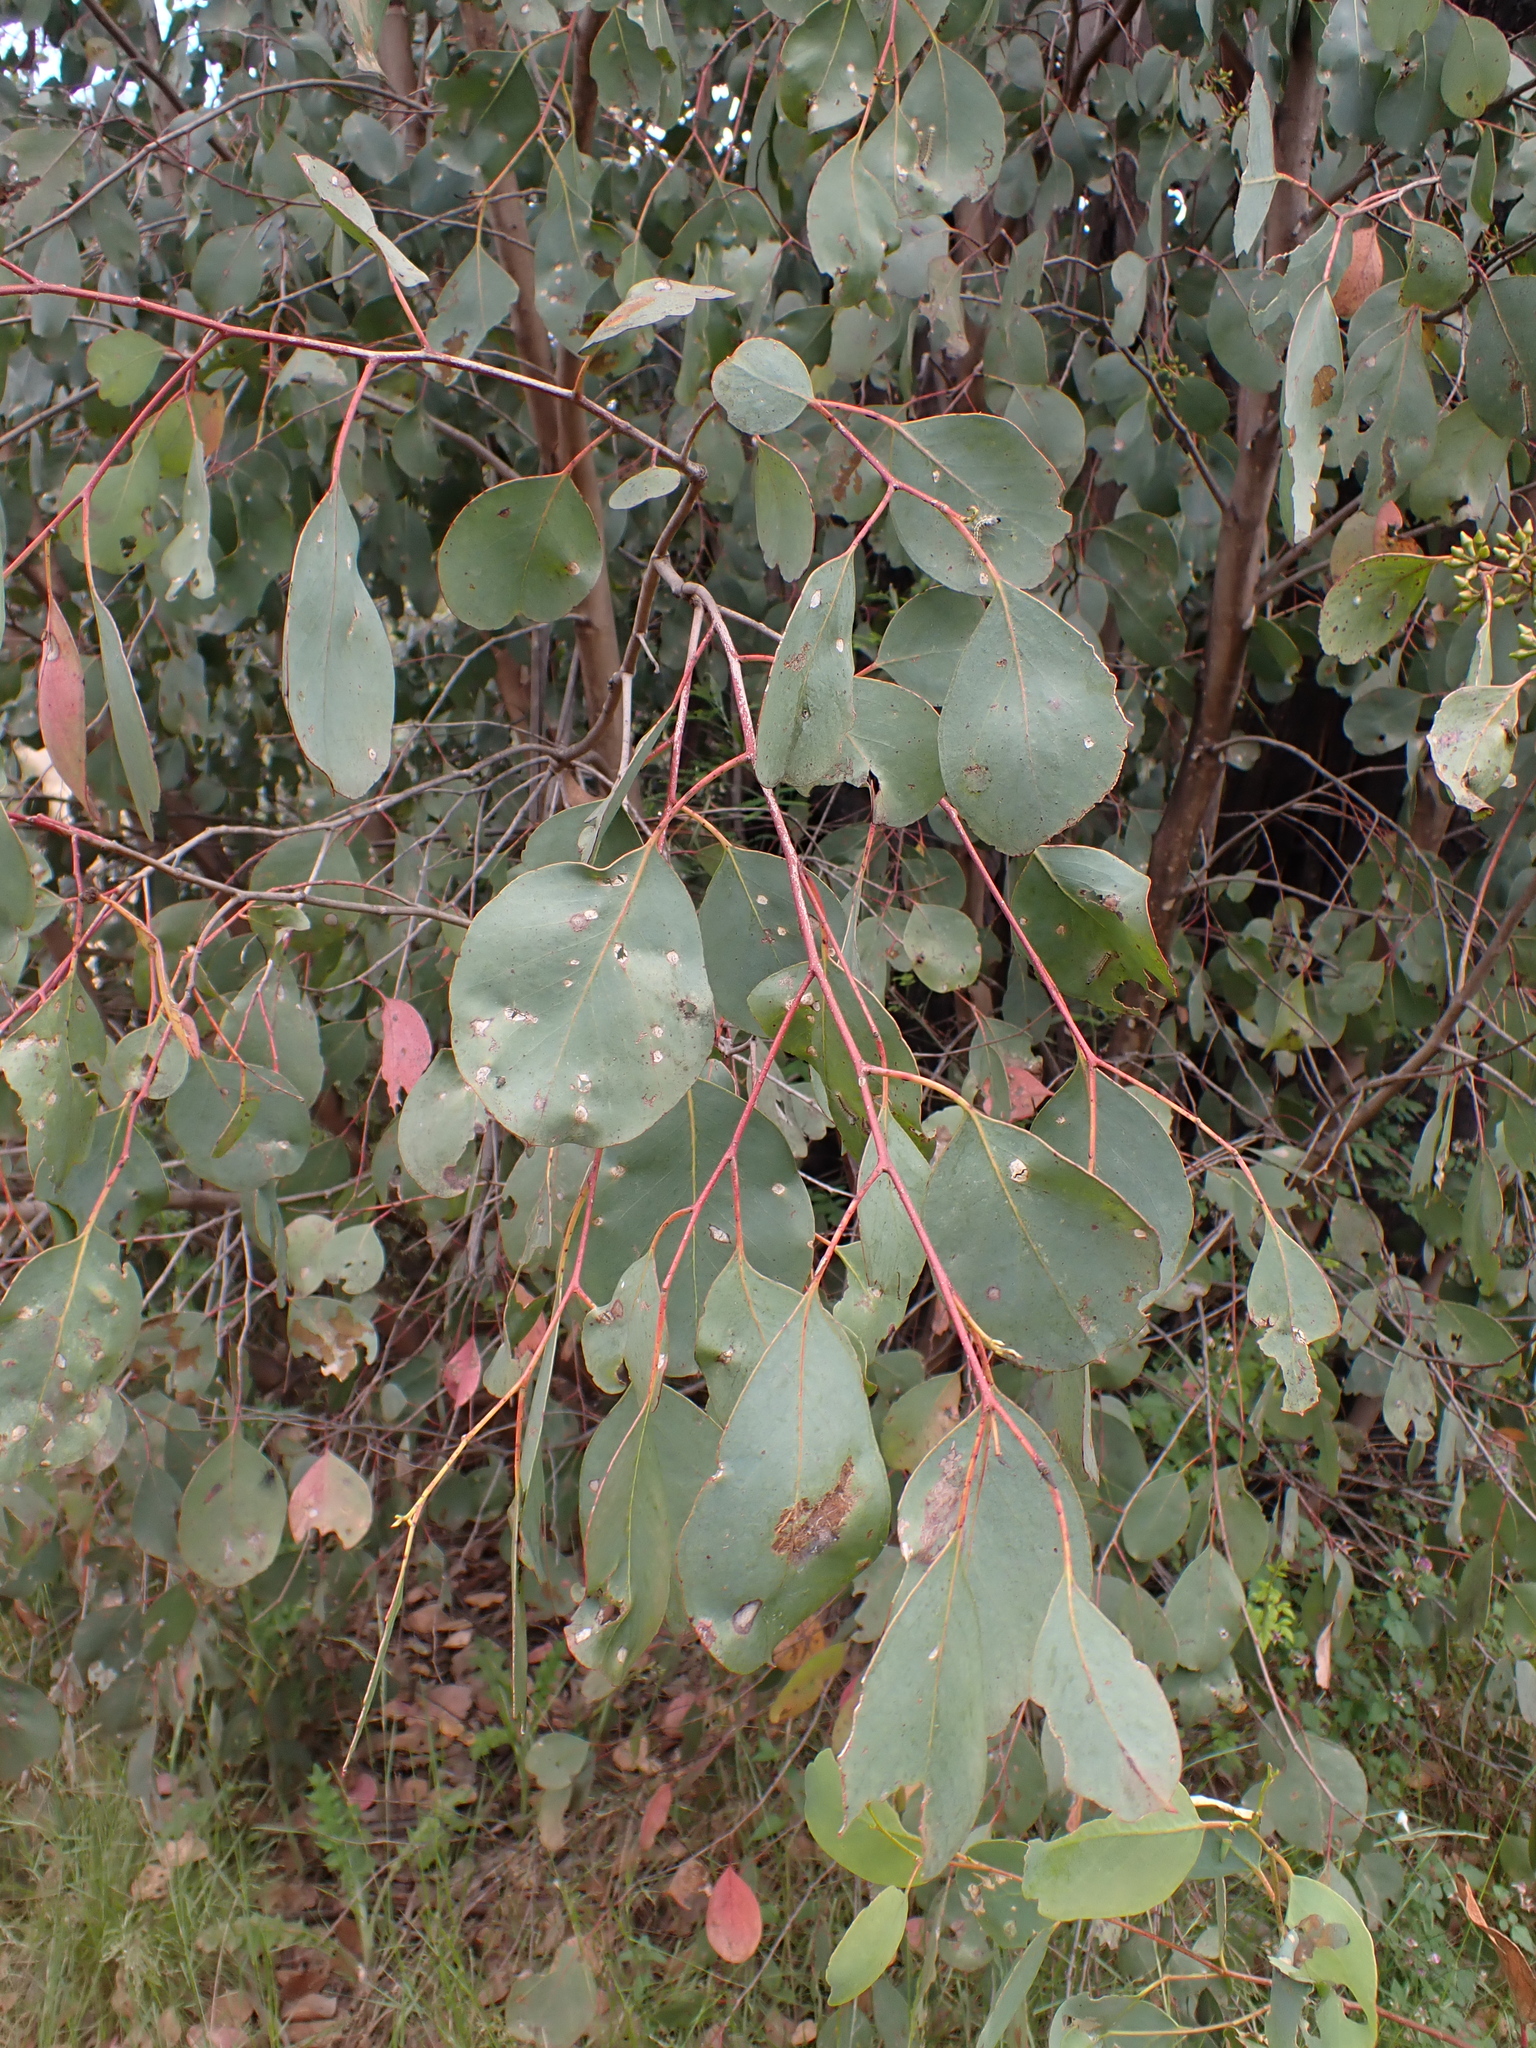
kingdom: Plantae
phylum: Tracheophyta
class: Magnoliopsida
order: Myrtales
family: Myrtaceae
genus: Eucalyptus
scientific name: Eucalyptus camphora
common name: Mountain swamp gum
